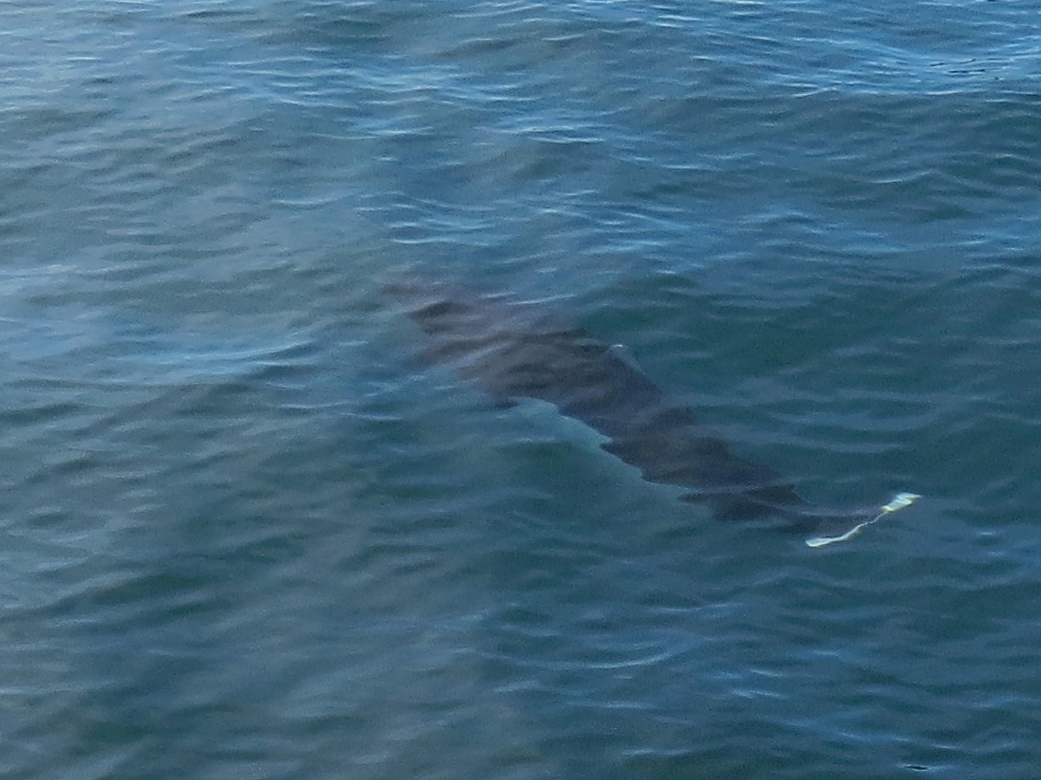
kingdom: Animalia
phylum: Chordata
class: Mammalia
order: Cetacea
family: Phocoenidae
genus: Phocoenoides
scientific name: Phocoenoides dalli
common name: Dall's porpoise
